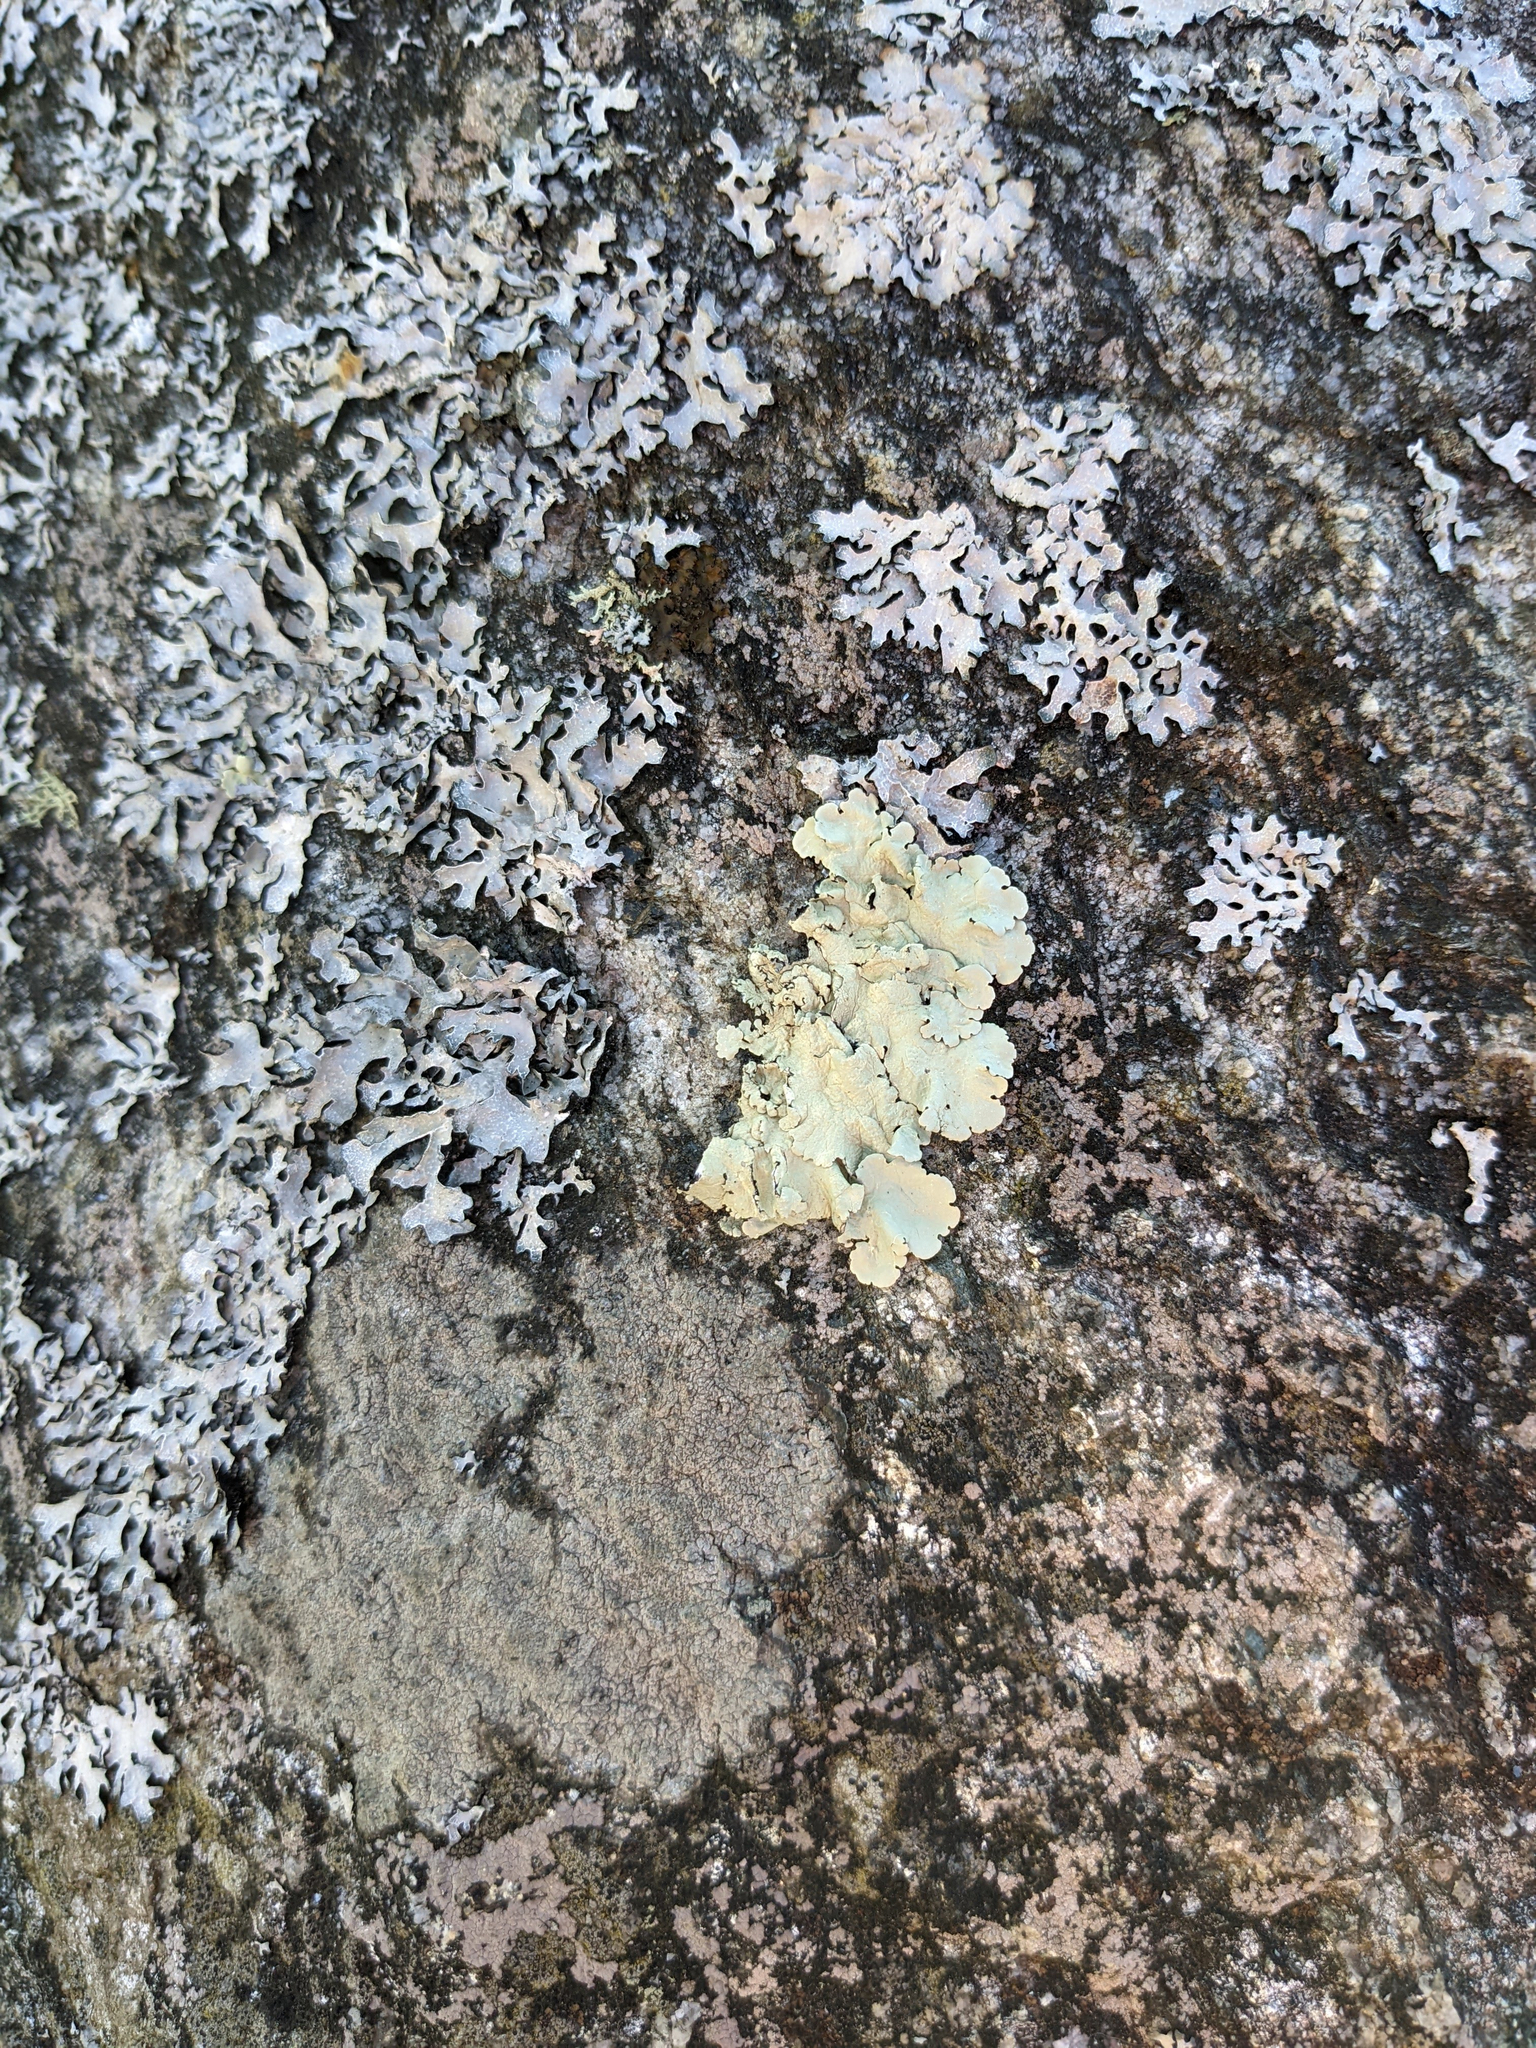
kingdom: Fungi
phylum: Ascomycota
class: Lecanoromycetes
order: Lecanorales
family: Parmeliaceae
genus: Flavoparmelia
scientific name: Flavoparmelia caperata
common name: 40-mile per hour lichen
